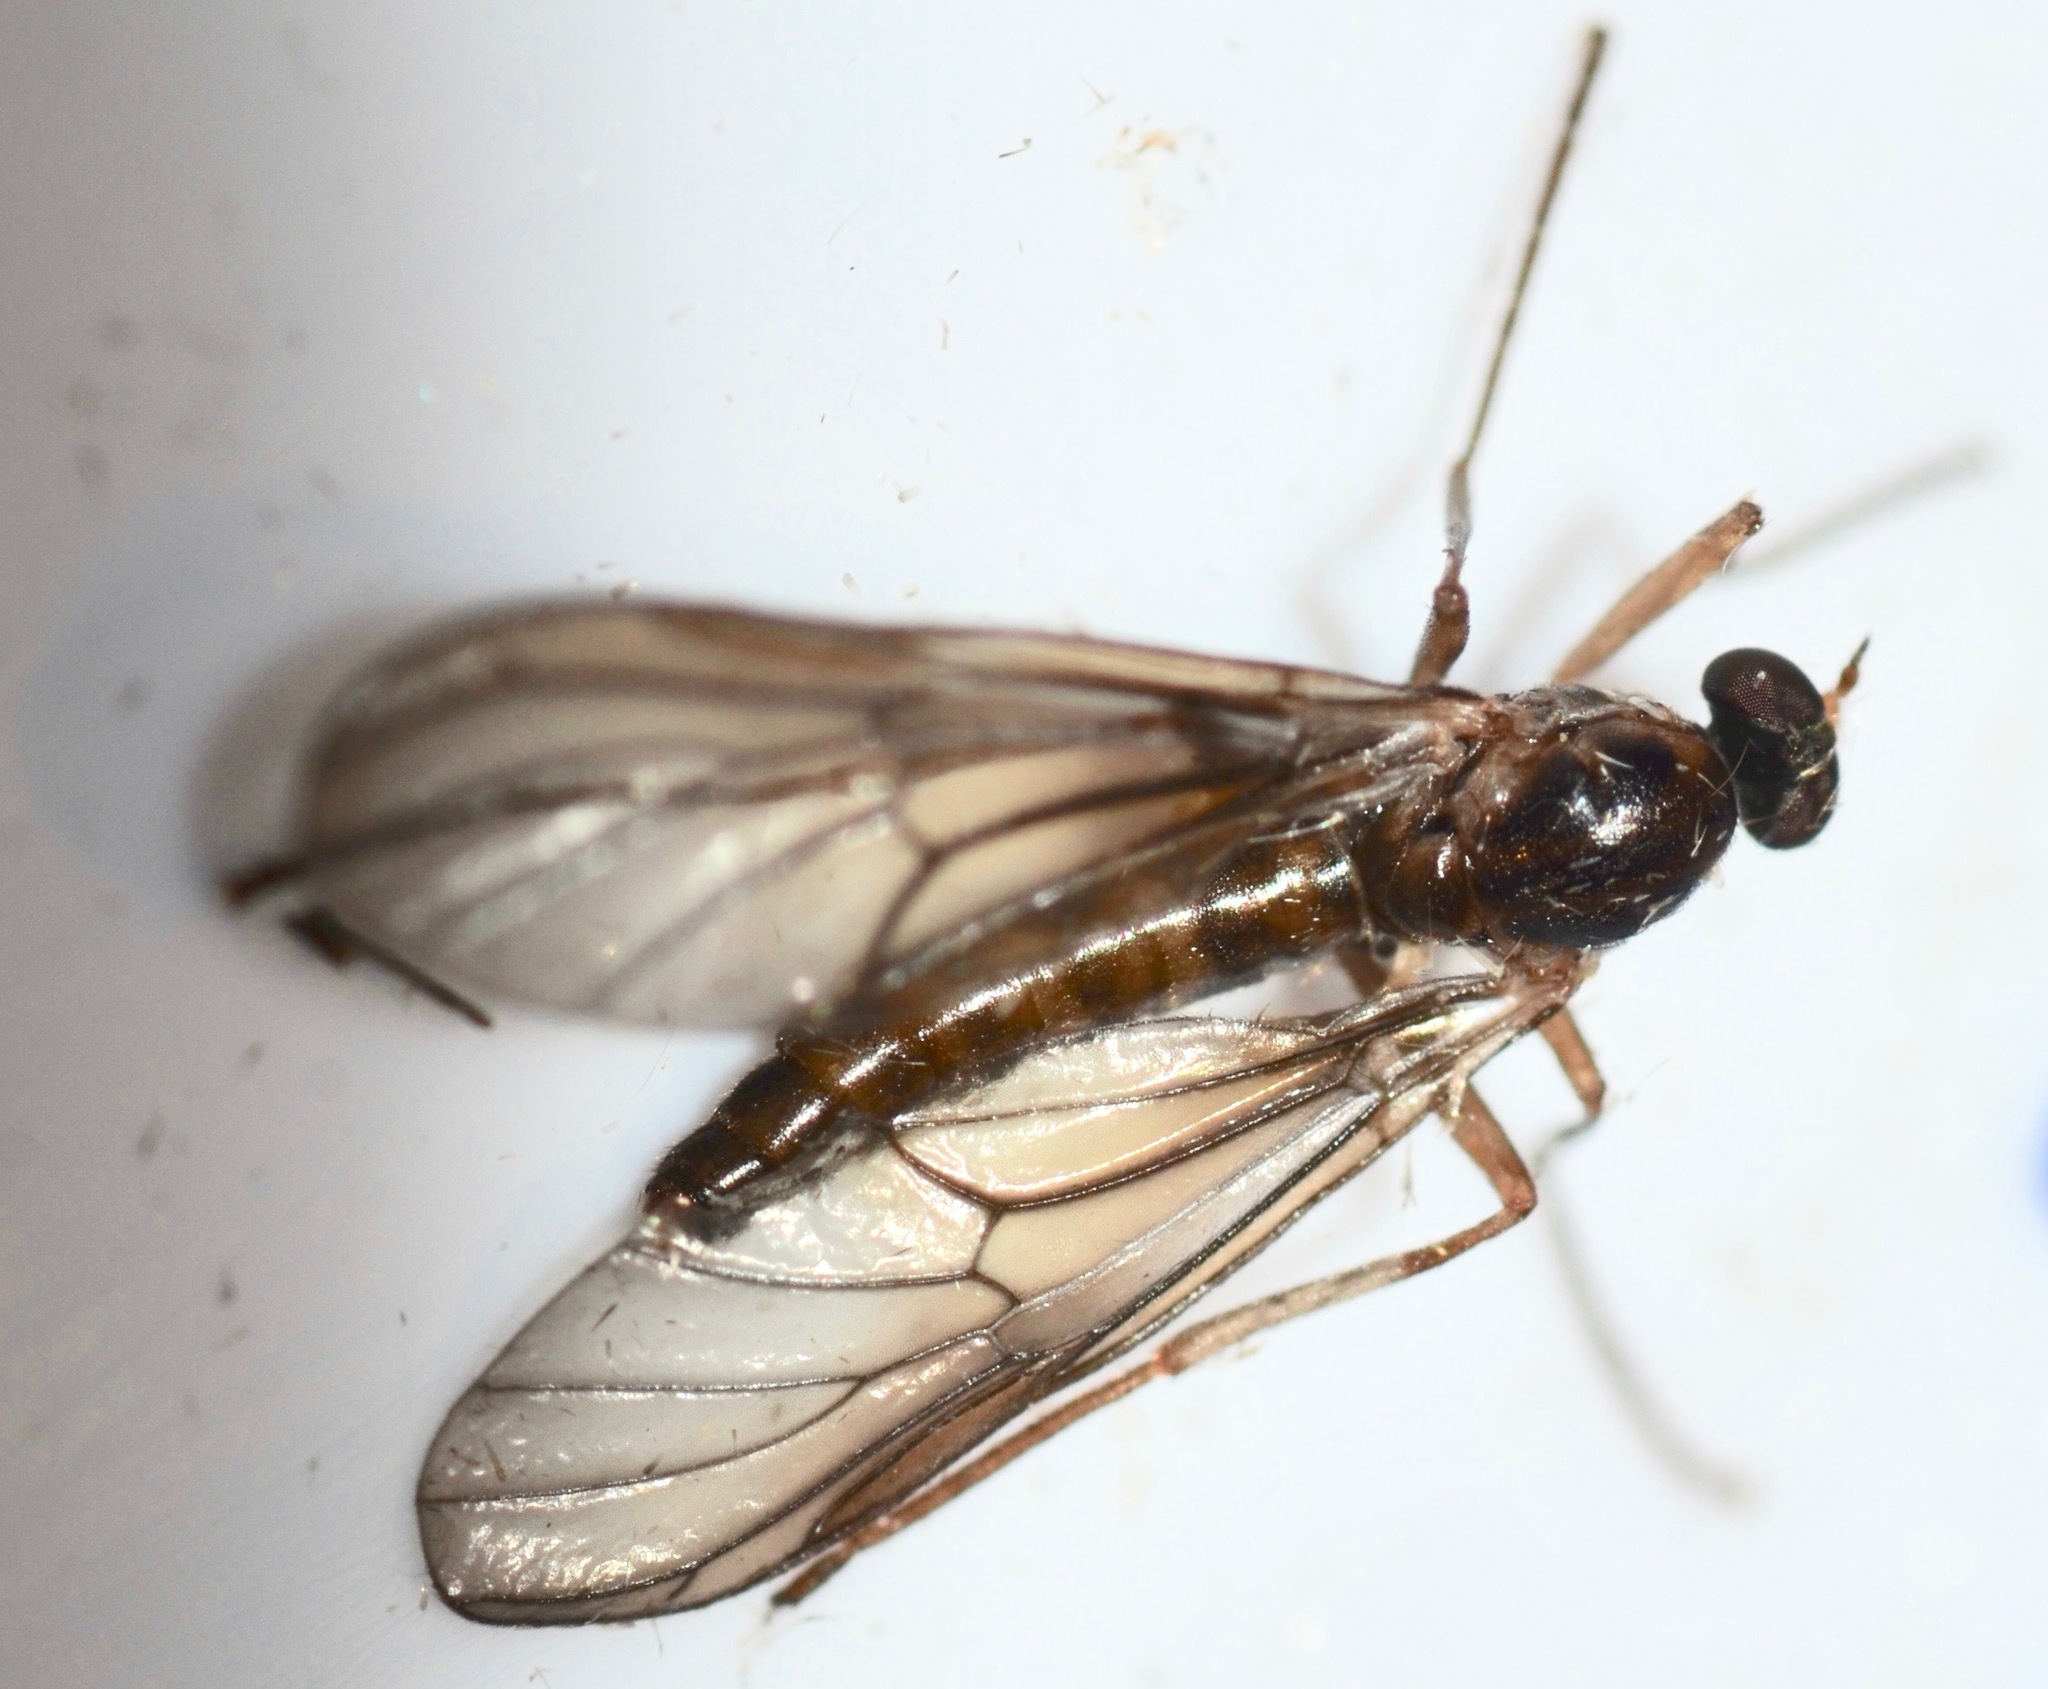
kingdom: Animalia
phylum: Arthropoda
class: Insecta
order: Diptera
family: Stratiomyidae
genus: Boreoides
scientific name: Boreoides tasmaniensis
